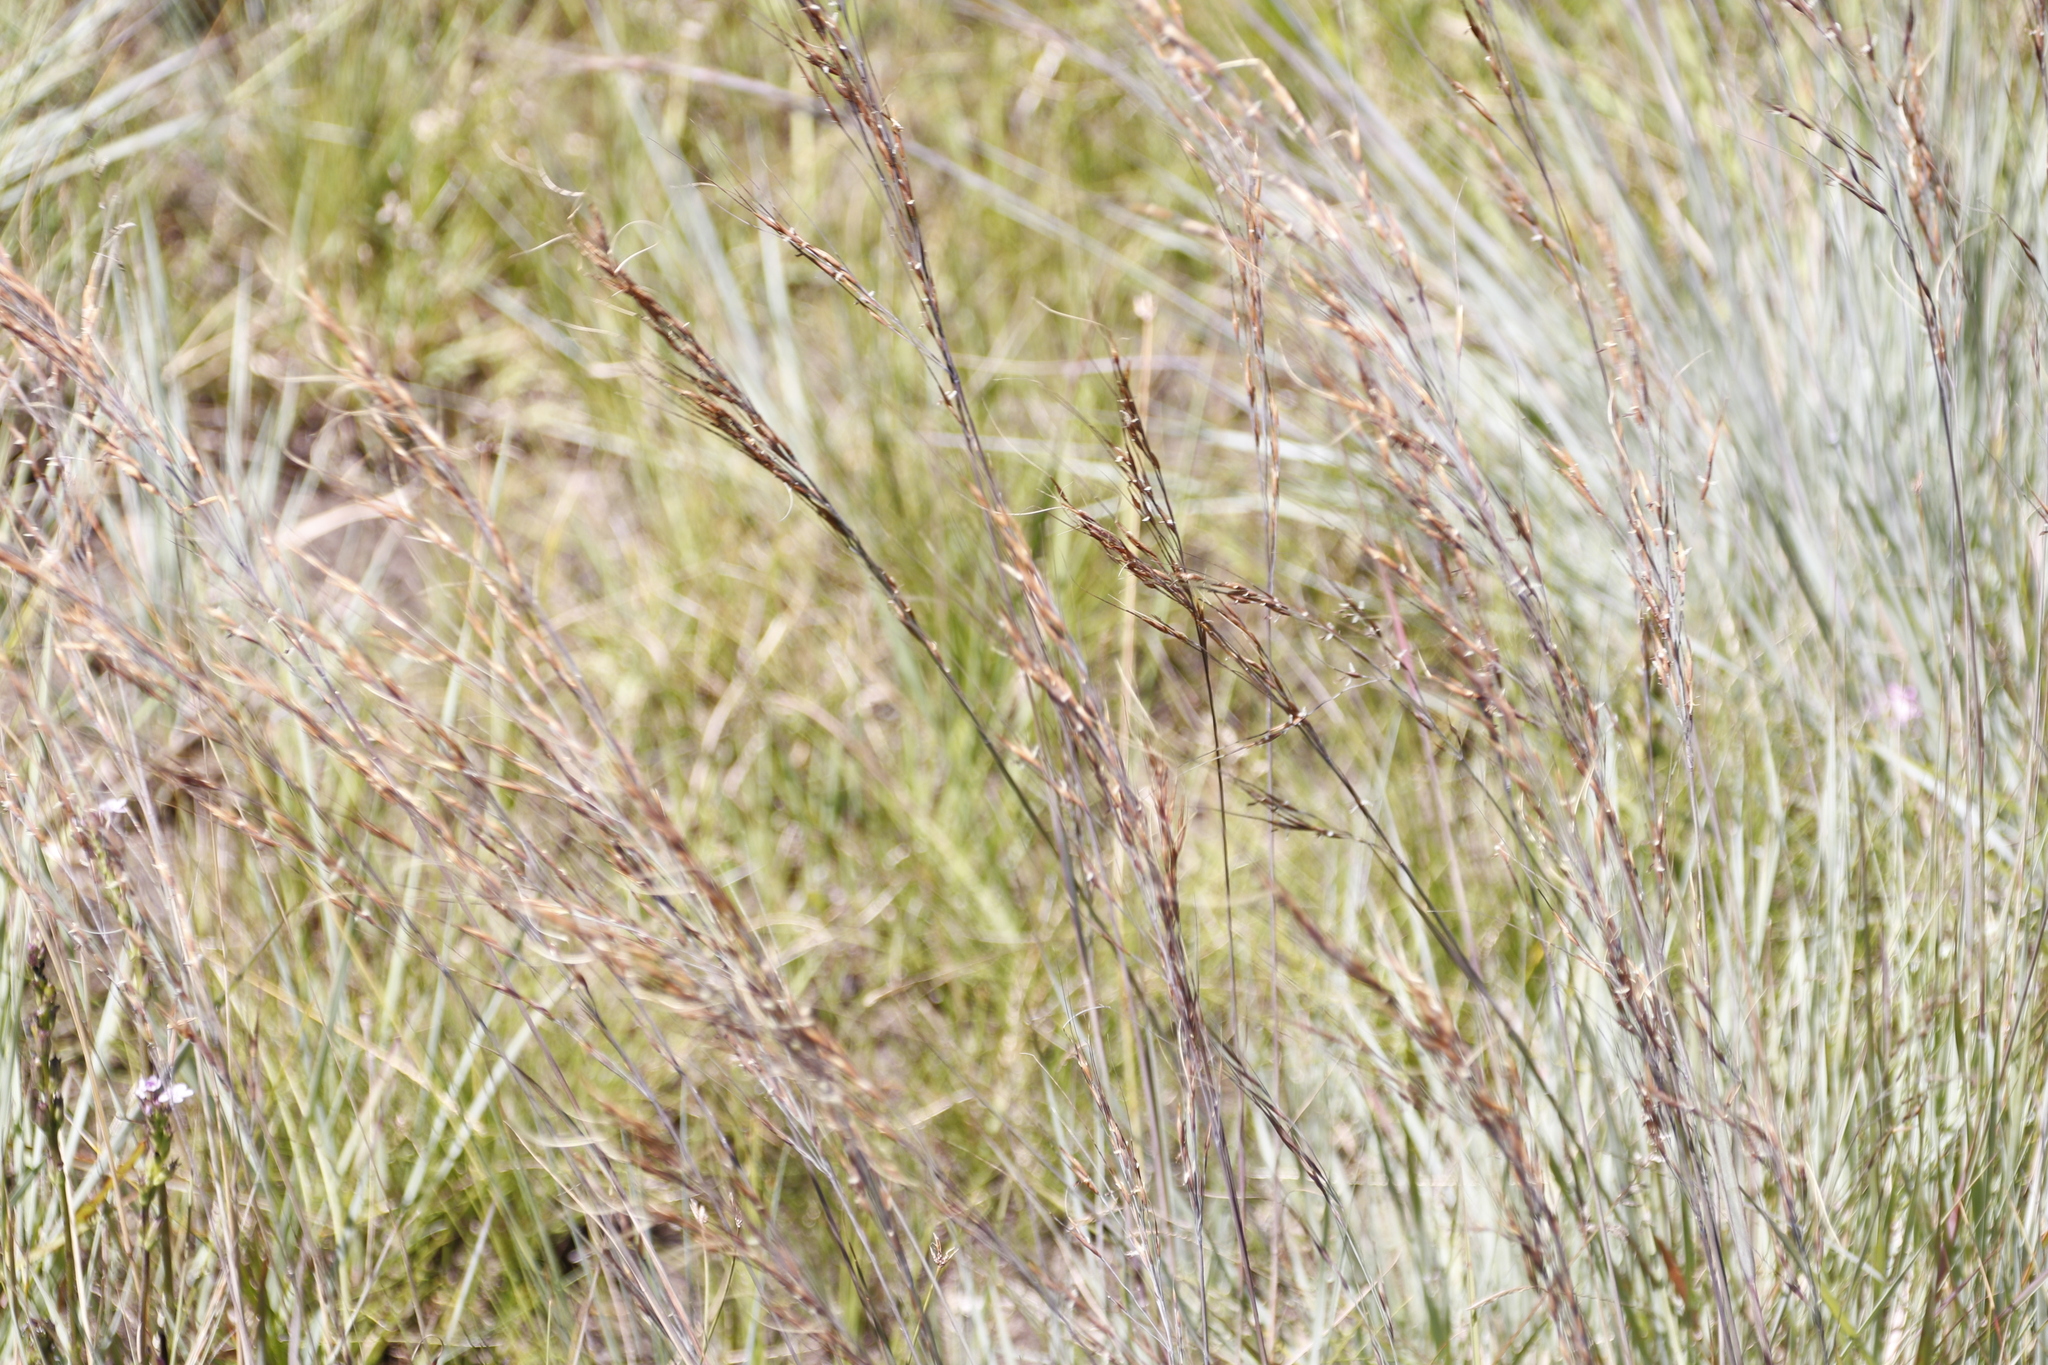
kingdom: Plantae
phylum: Tracheophyta
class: Liliopsida
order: Poales
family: Poaceae
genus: Loudetia
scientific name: Loudetia simplex
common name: Common russet grass
